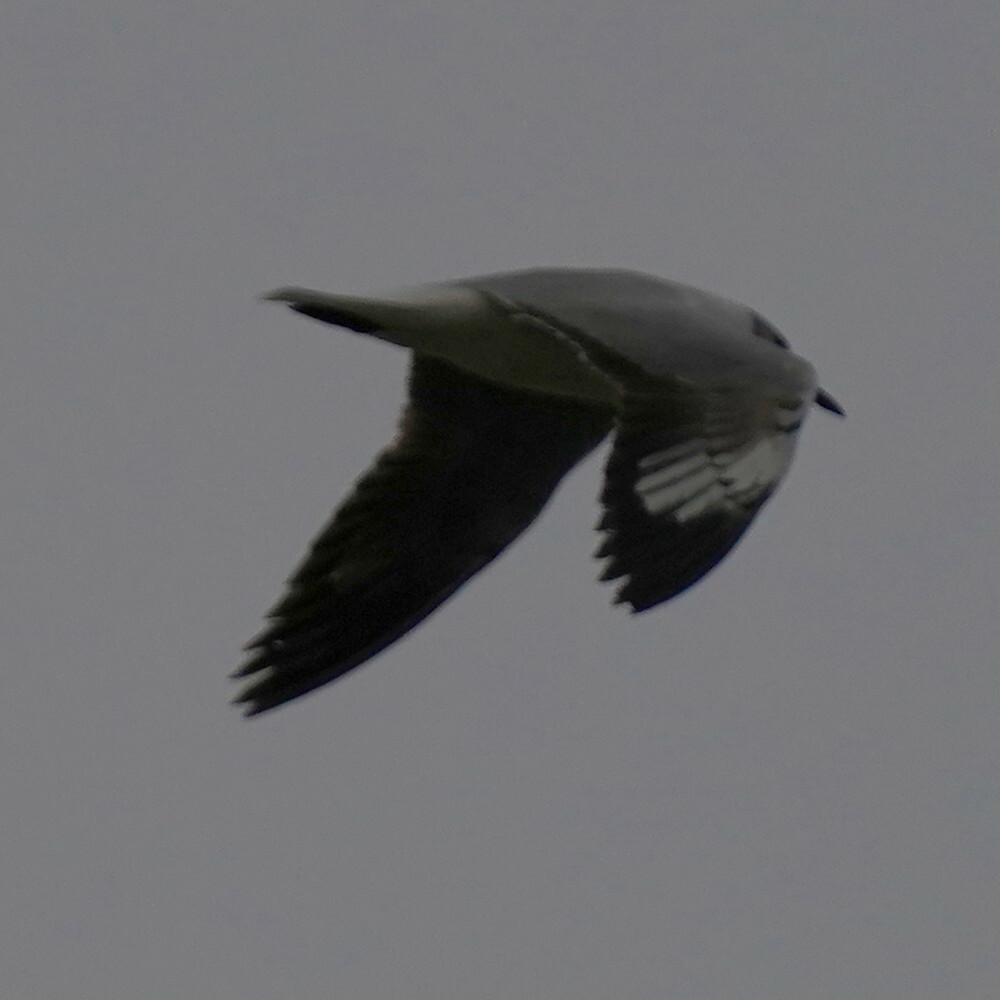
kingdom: Animalia
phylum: Chordata
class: Aves
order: Charadriiformes
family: Laridae
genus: Chroicocephalus
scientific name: Chroicocephalus cirrocephalus
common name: Grey-headed gull
